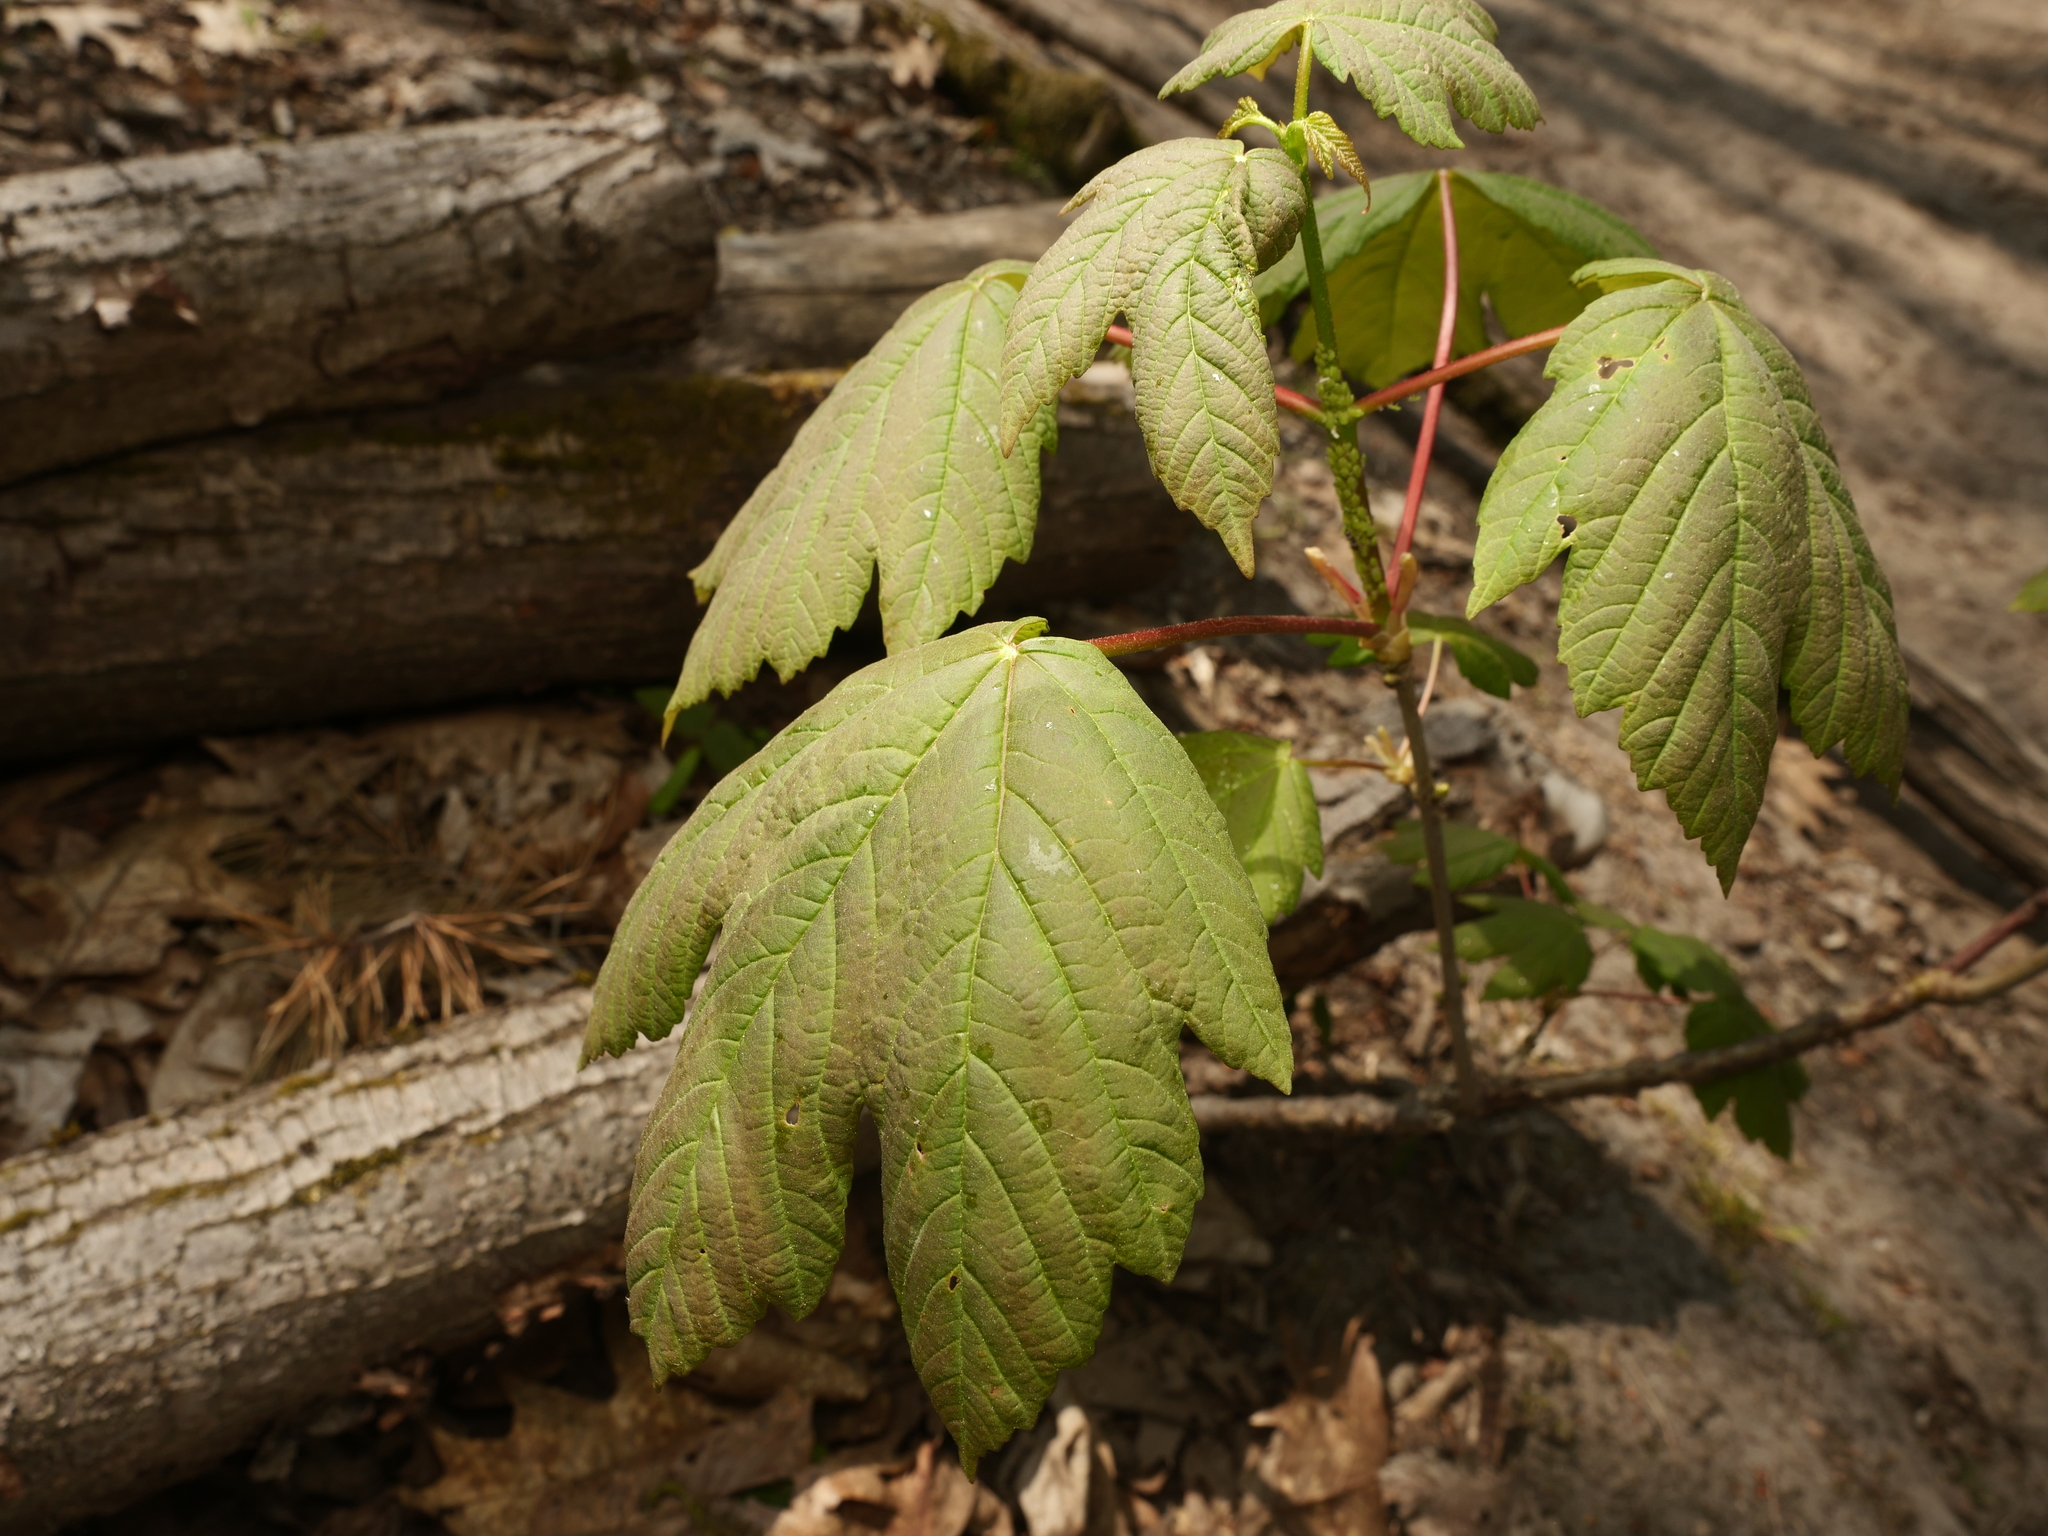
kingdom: Plantae
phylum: Tracheophyta
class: Magnoliopsida
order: Sapindales
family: Sapindaceae
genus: Acer
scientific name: Acer pseudoplatanus
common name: Sycamore
